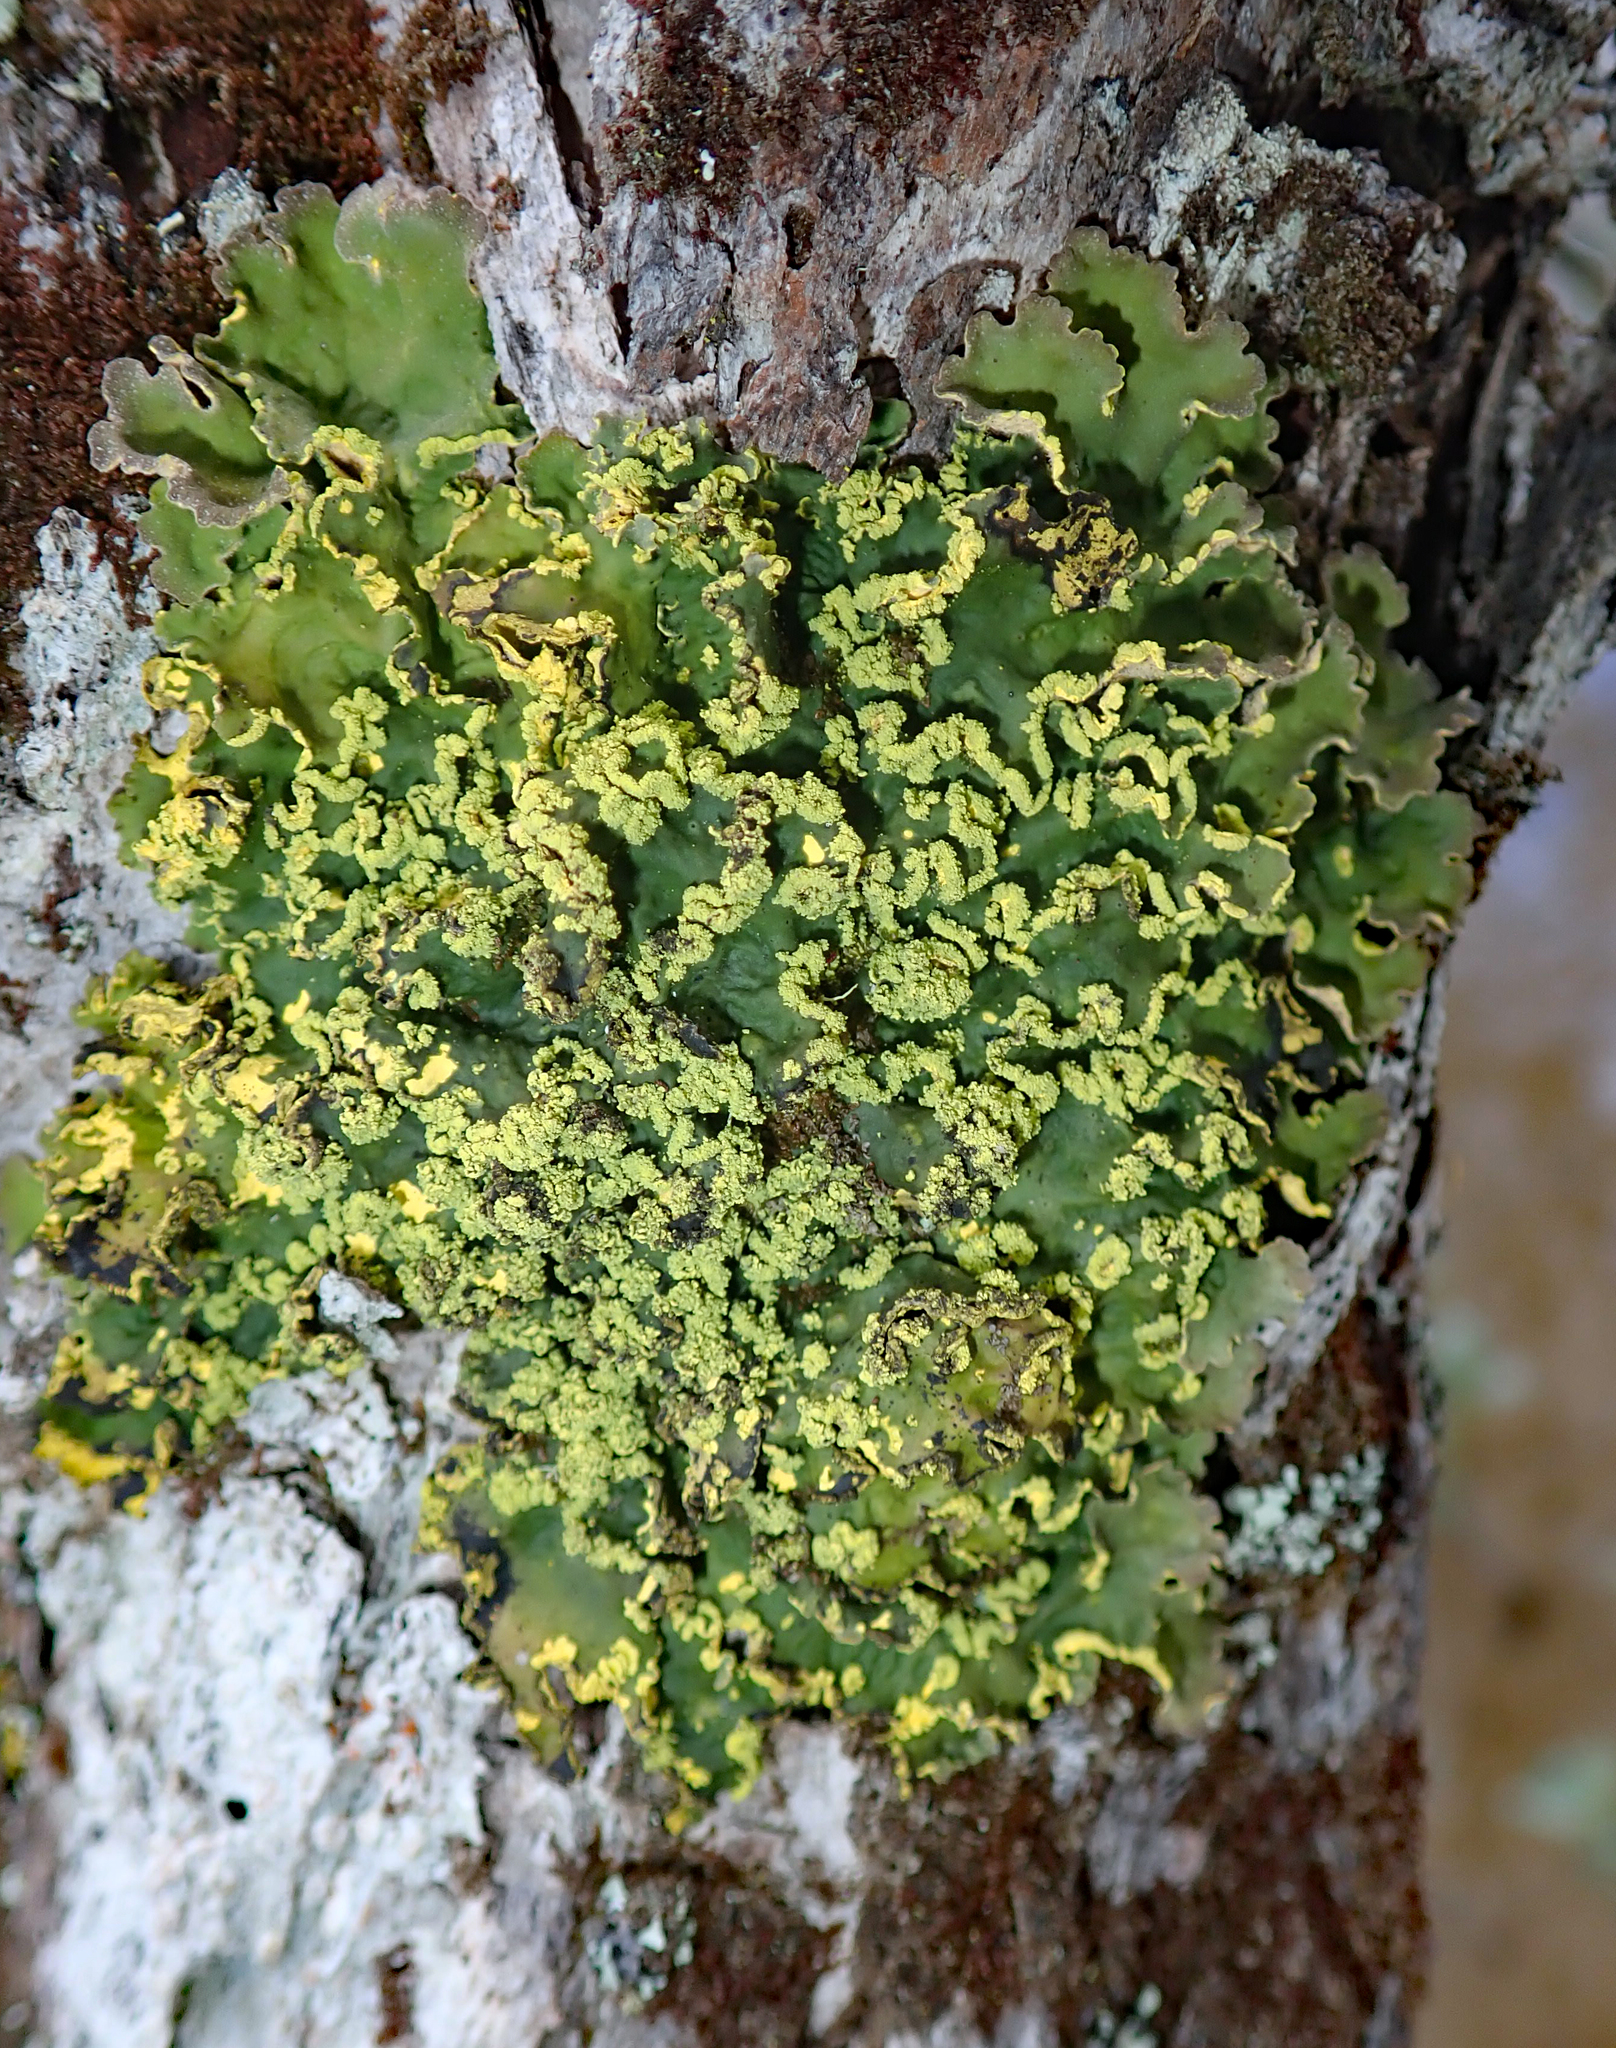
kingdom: Fungi
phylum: Ascomycota
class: Lecanoromycetes
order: Peltigerales
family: Lobariaceae
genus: Pseudocyphellaria
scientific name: Pseudocyphellaria aurata
